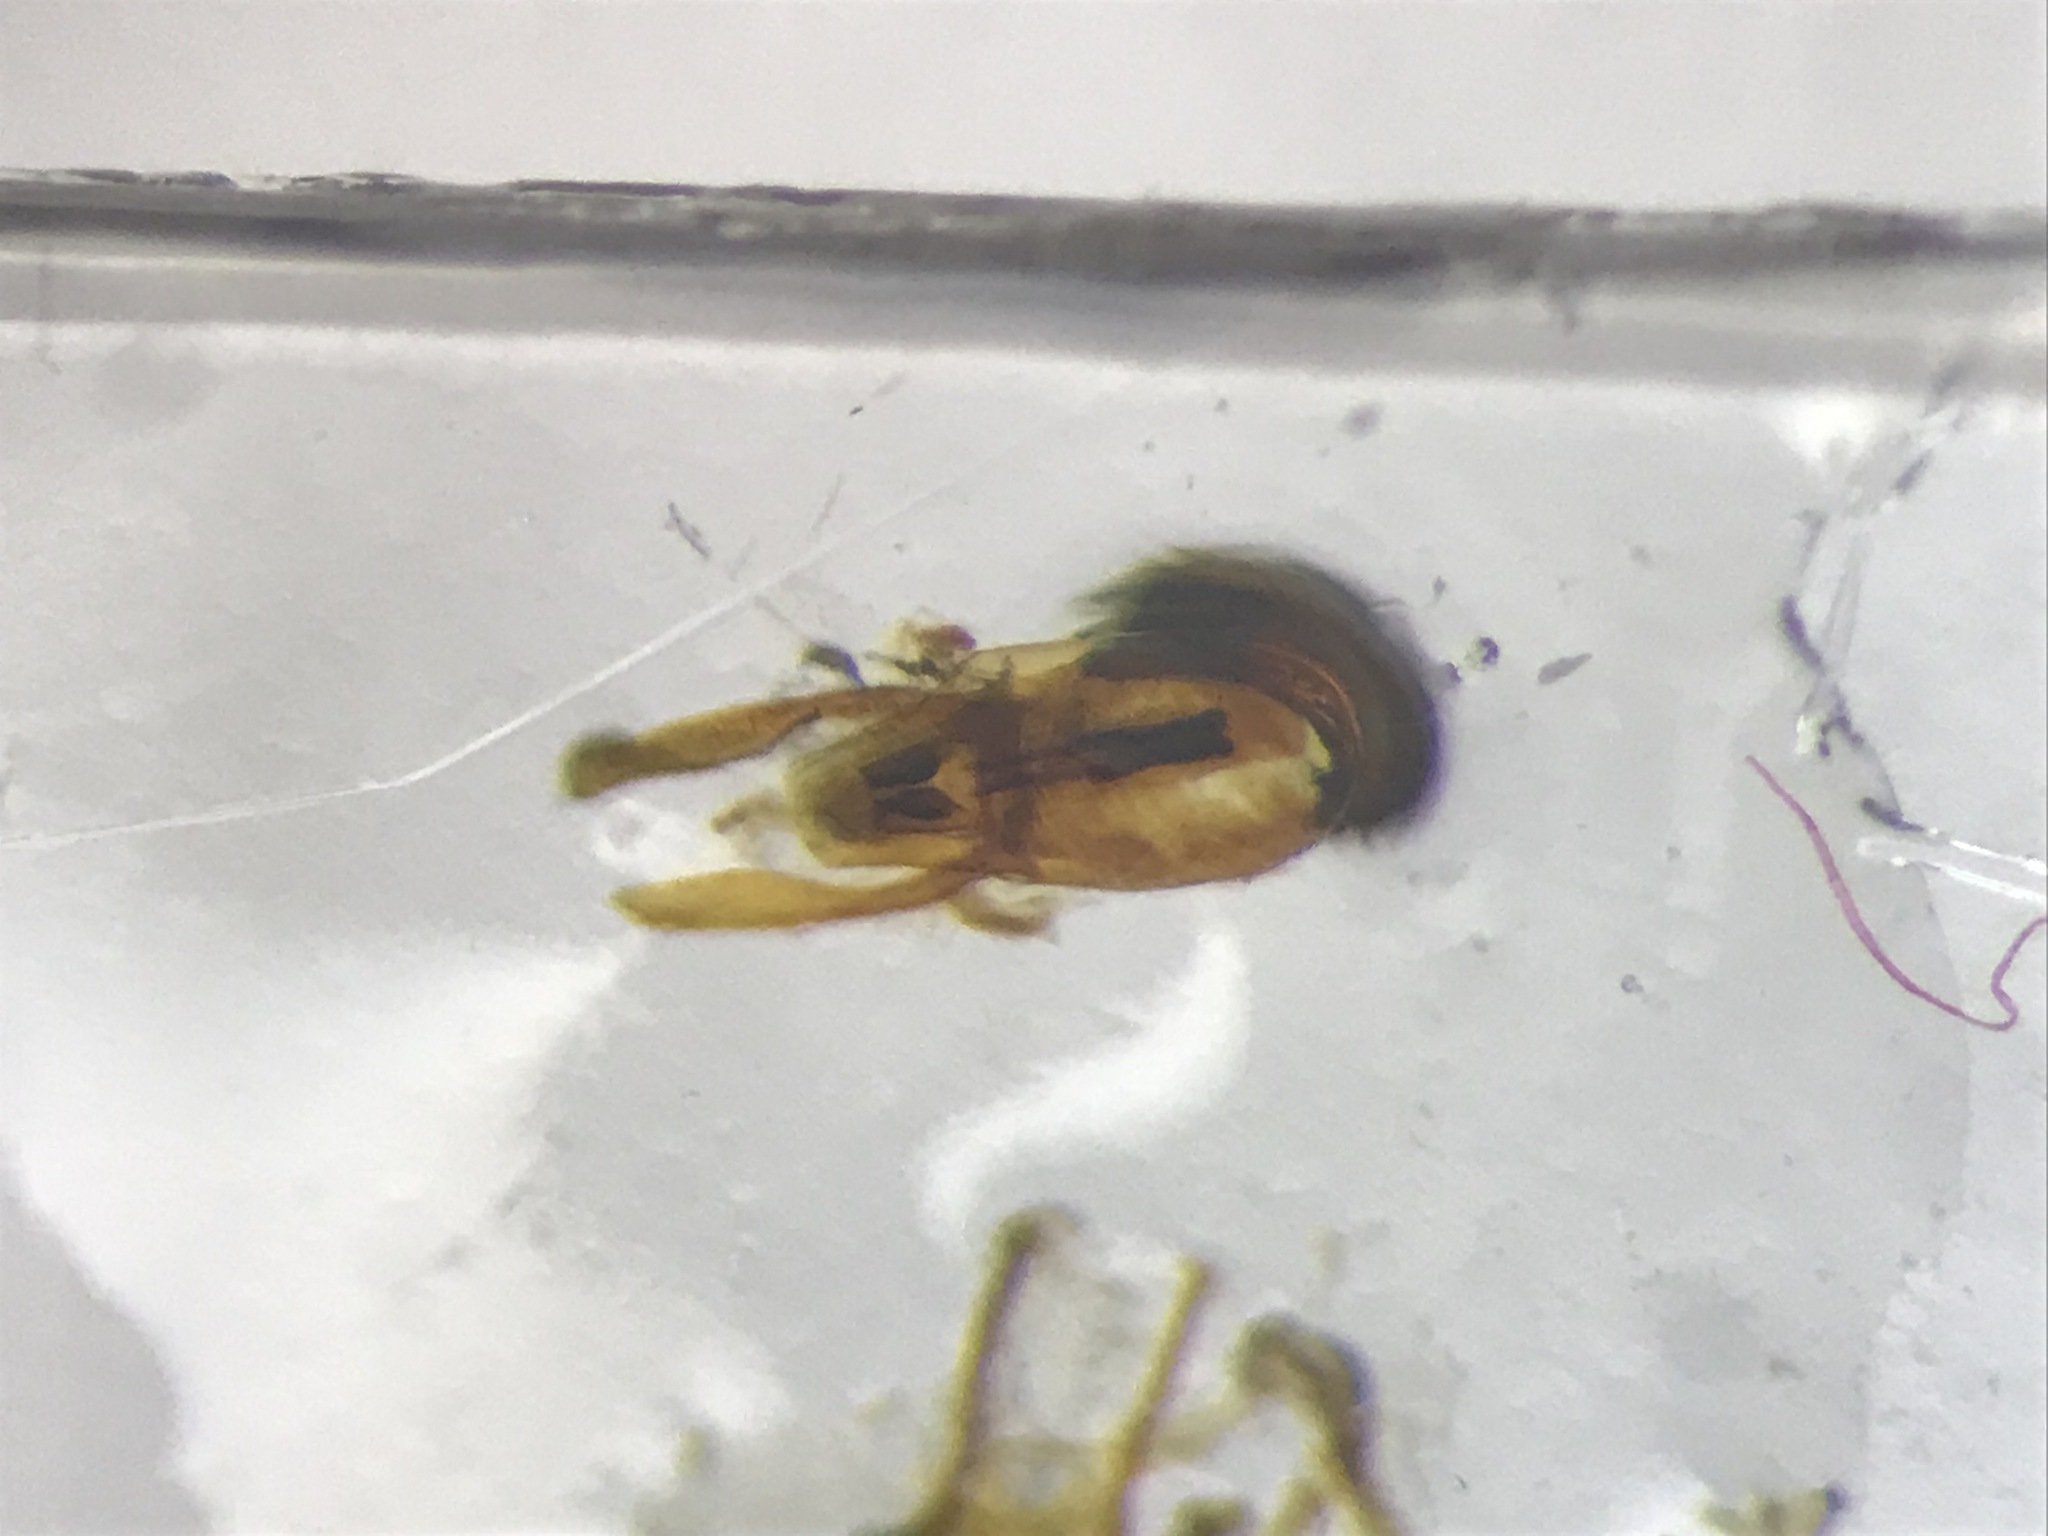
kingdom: Animalia
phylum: Arthropoda
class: Insecta
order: Coleoptera
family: Staphylinidae
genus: Coprophilus
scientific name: Coprophilus striatulus
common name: Rove beetle
